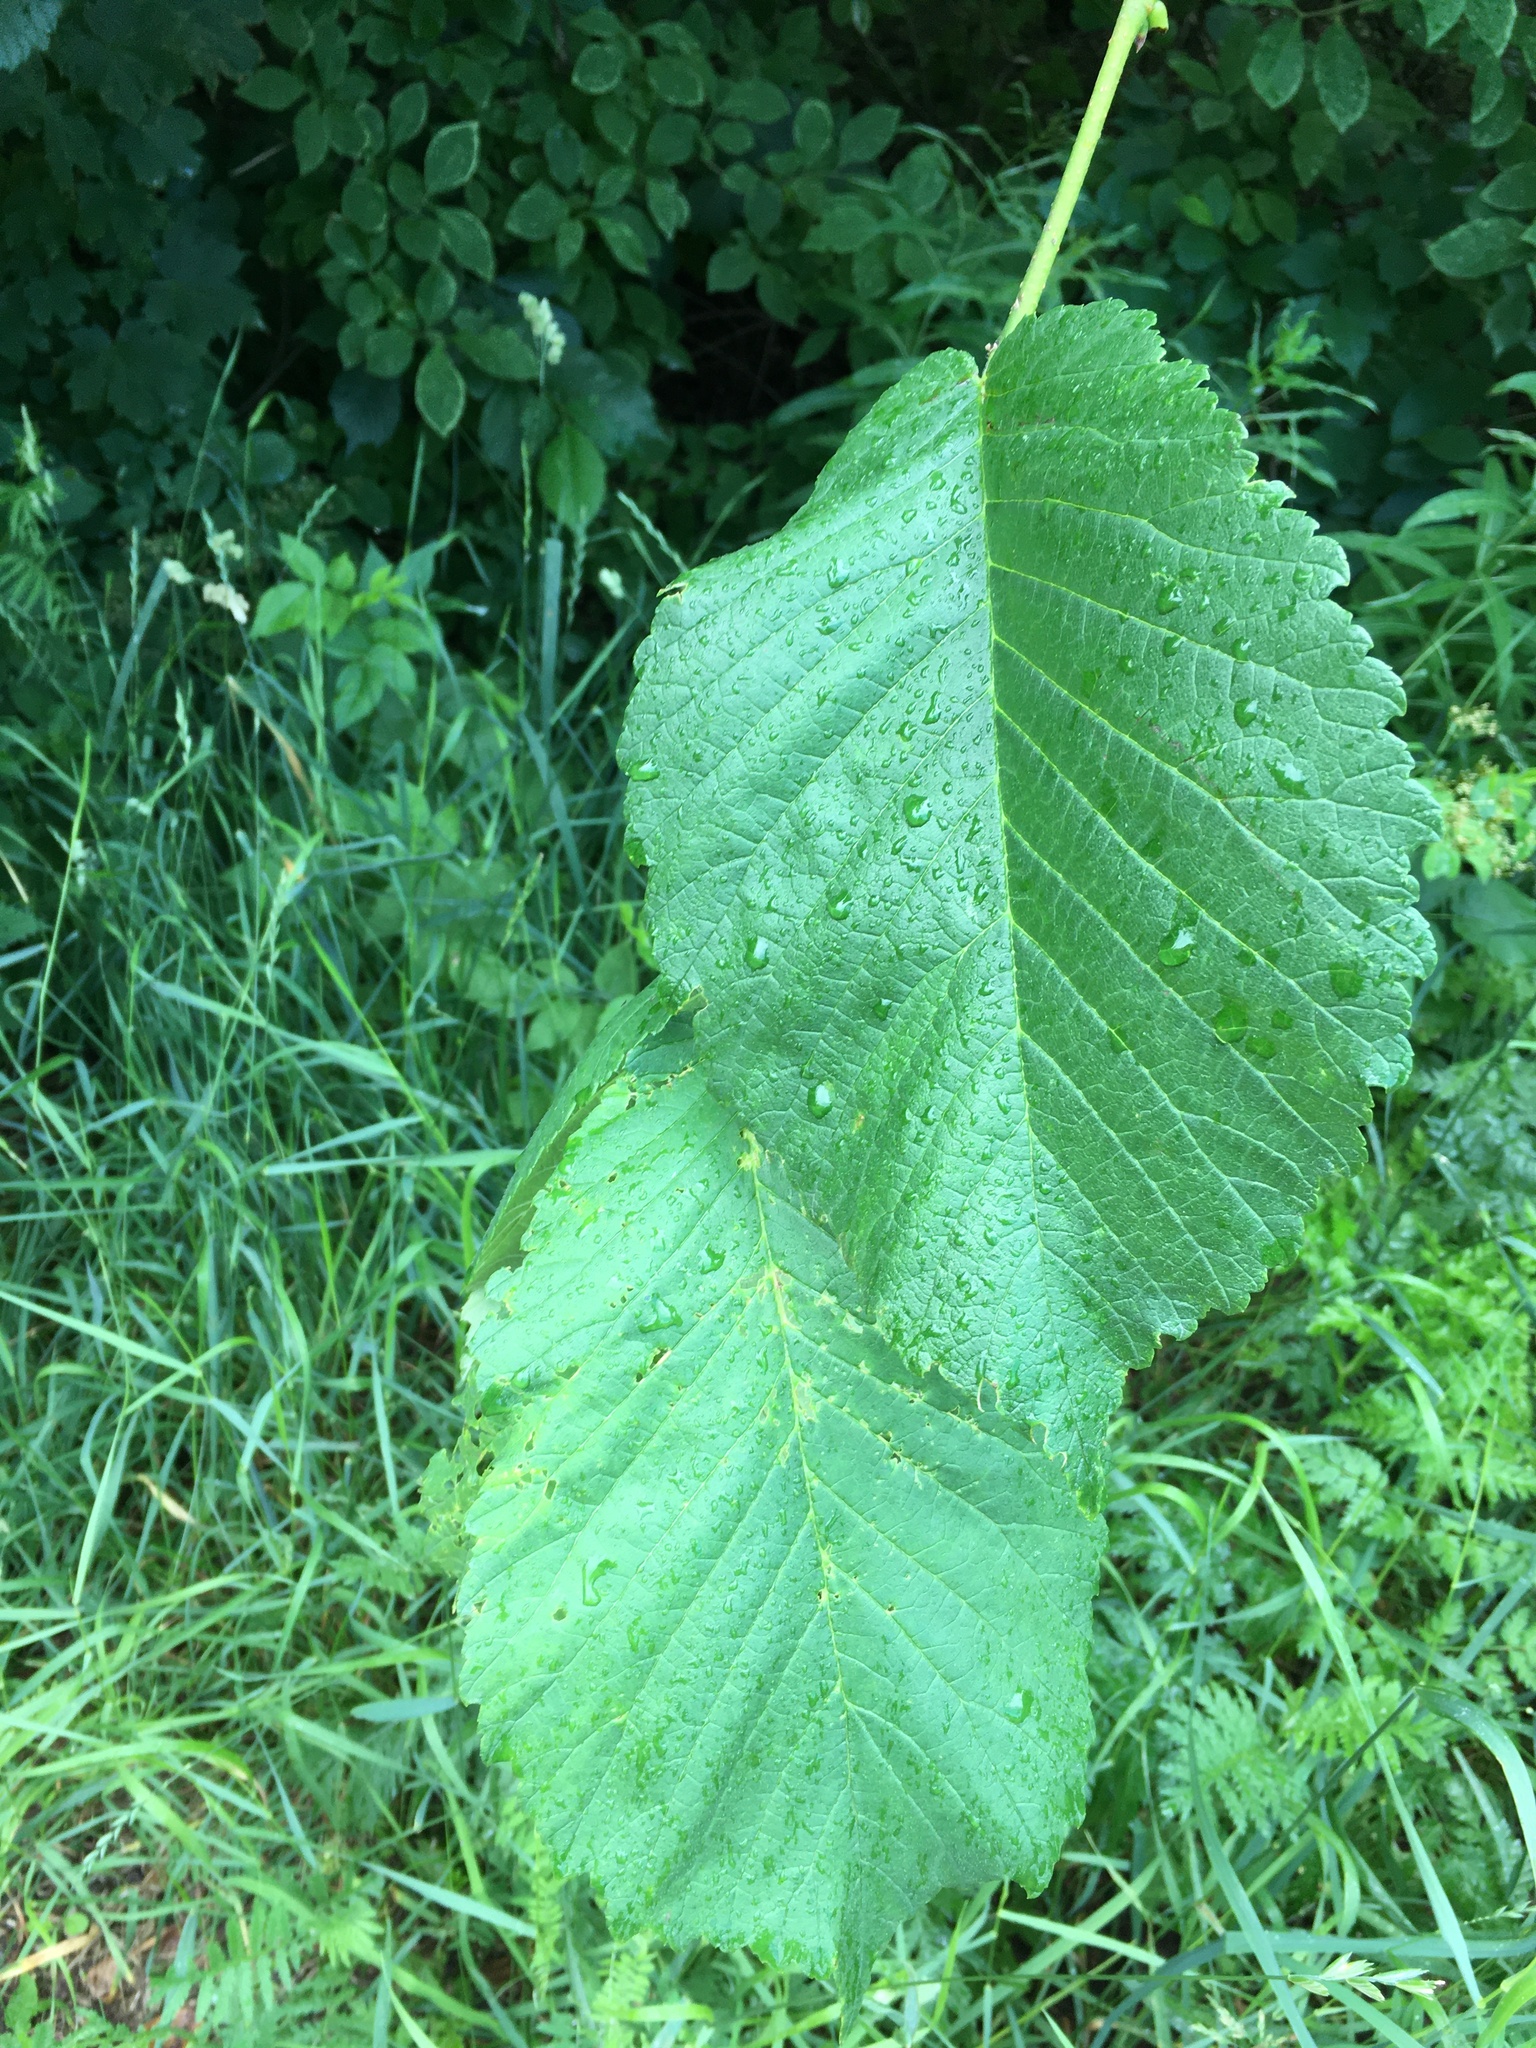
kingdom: Plantae
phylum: Tracheophyta
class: Magnoliopsida
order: Rosales
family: Ulmaceae
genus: Ulmus
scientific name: Ulmus glabra
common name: Wych elm
